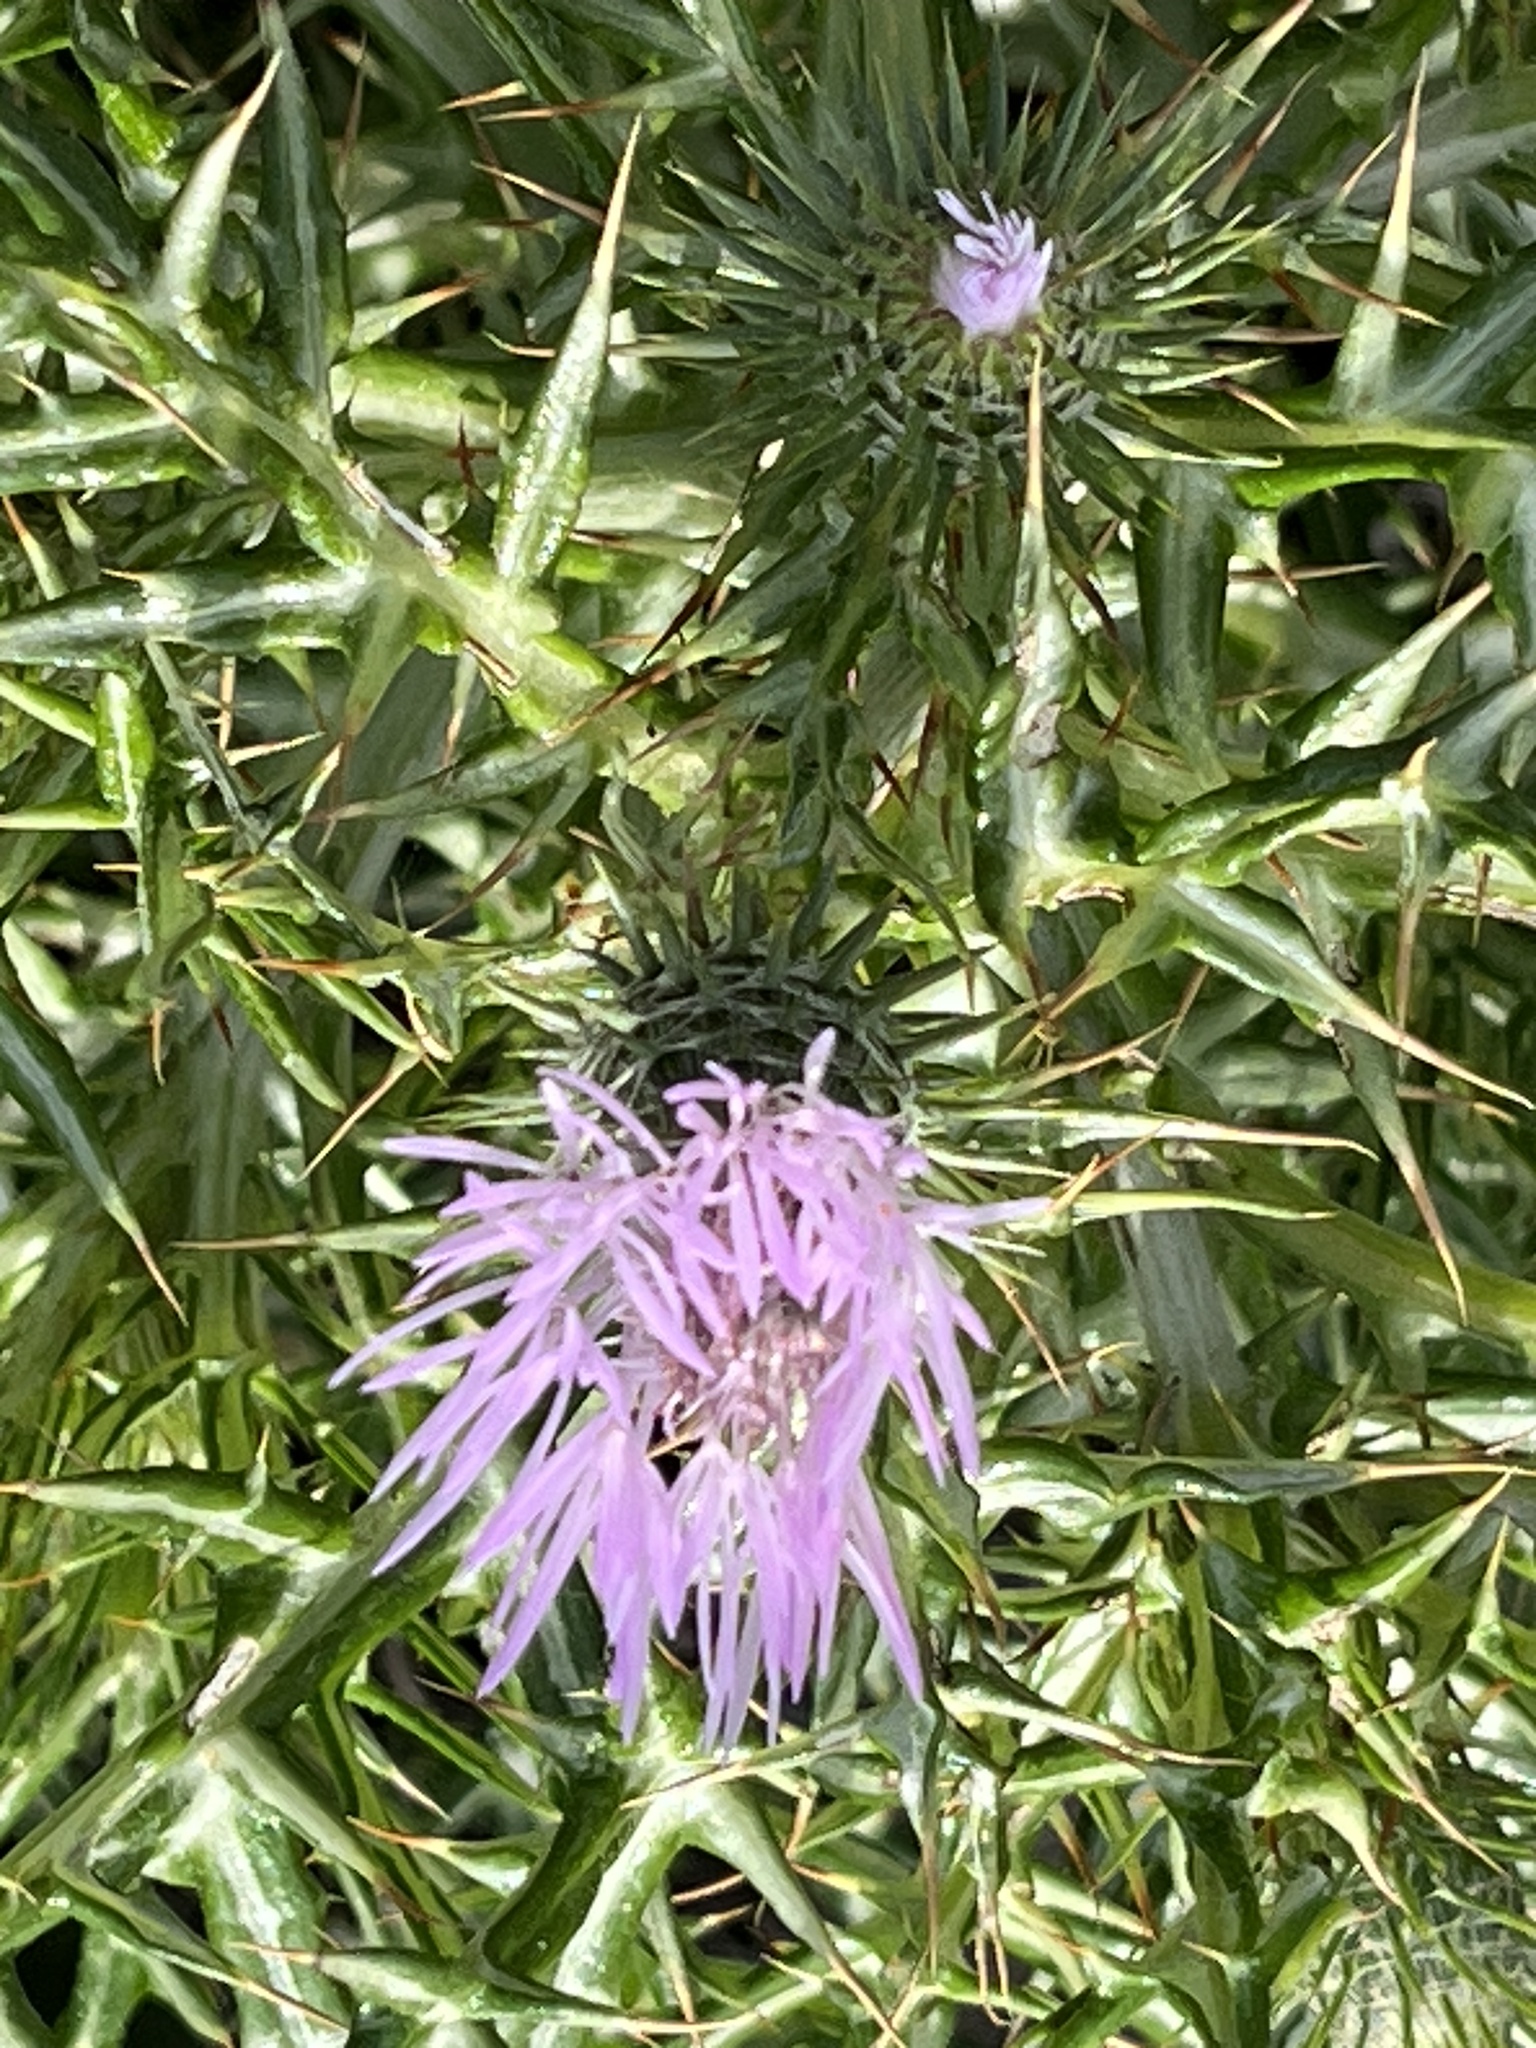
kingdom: Plantae
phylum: Tracheophyta
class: Magnoliopsida
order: Asterales
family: Asteraceae
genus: Galactites
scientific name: Galactites tomentosa
